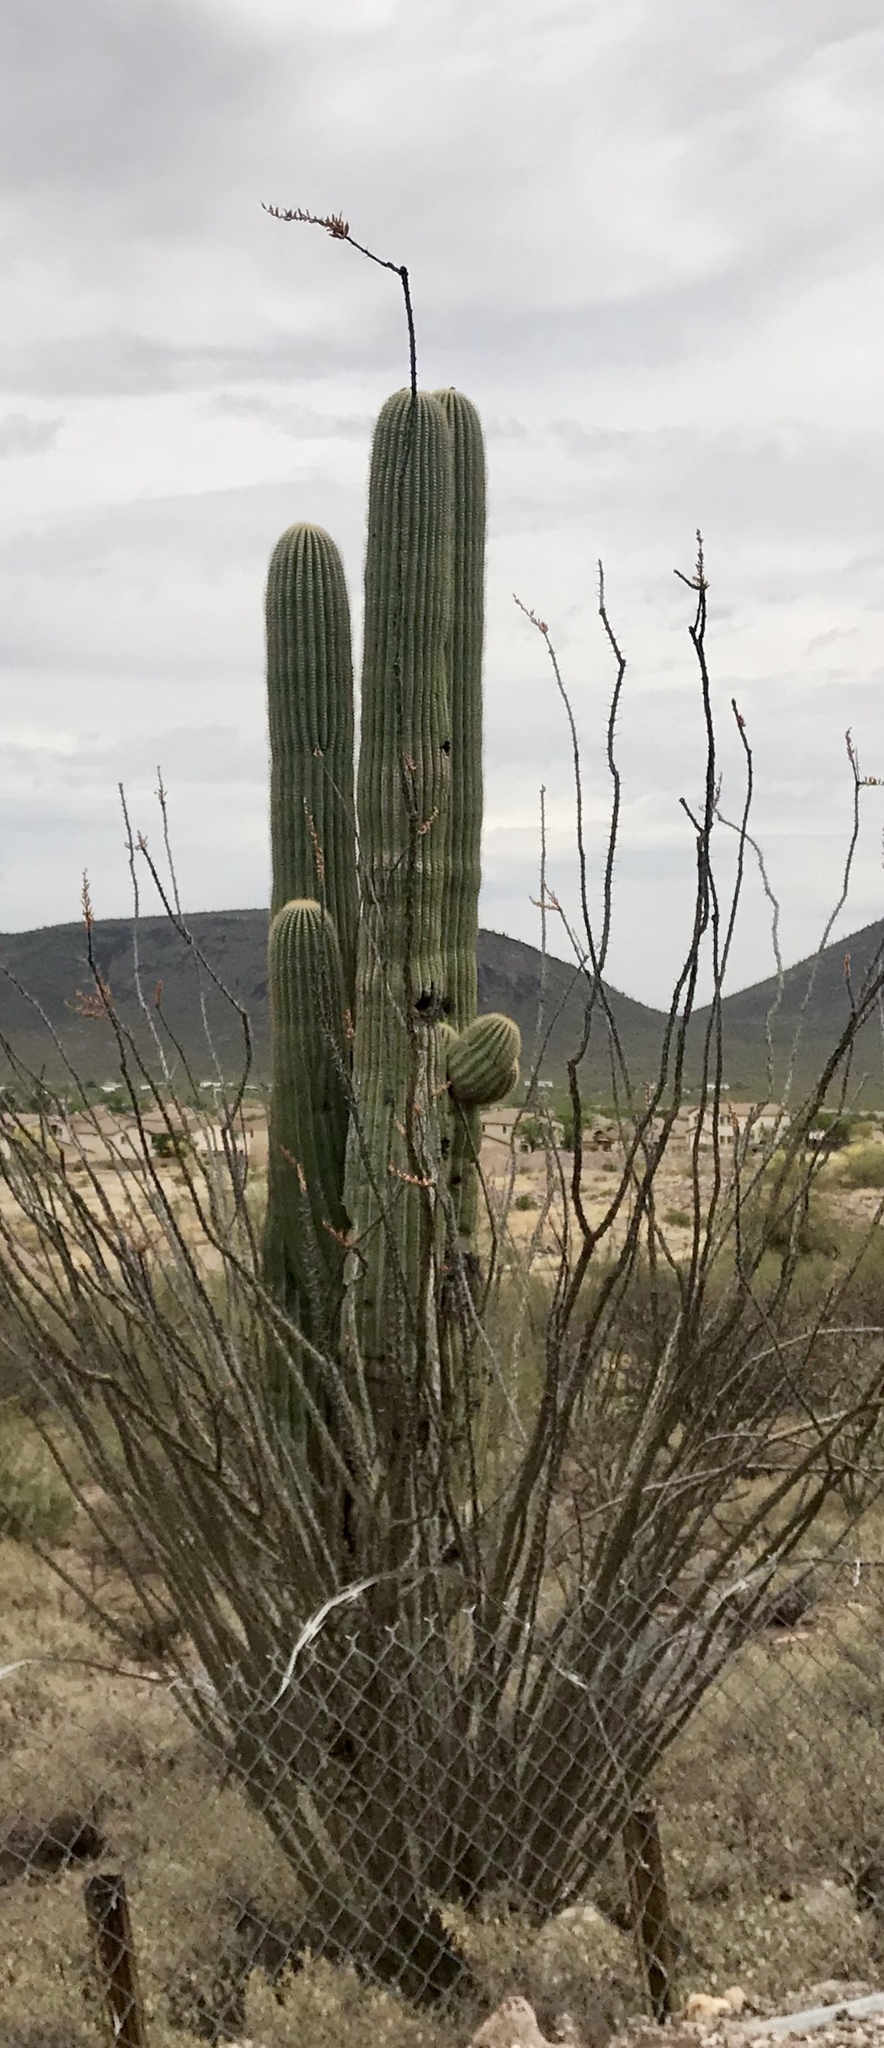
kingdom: Plantae
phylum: Tracheophyta
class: Magnoliopsida
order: Caryophyllales
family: Cactaceae
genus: Carnegiea
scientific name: Carnegiea gigantea
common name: Saguaro
